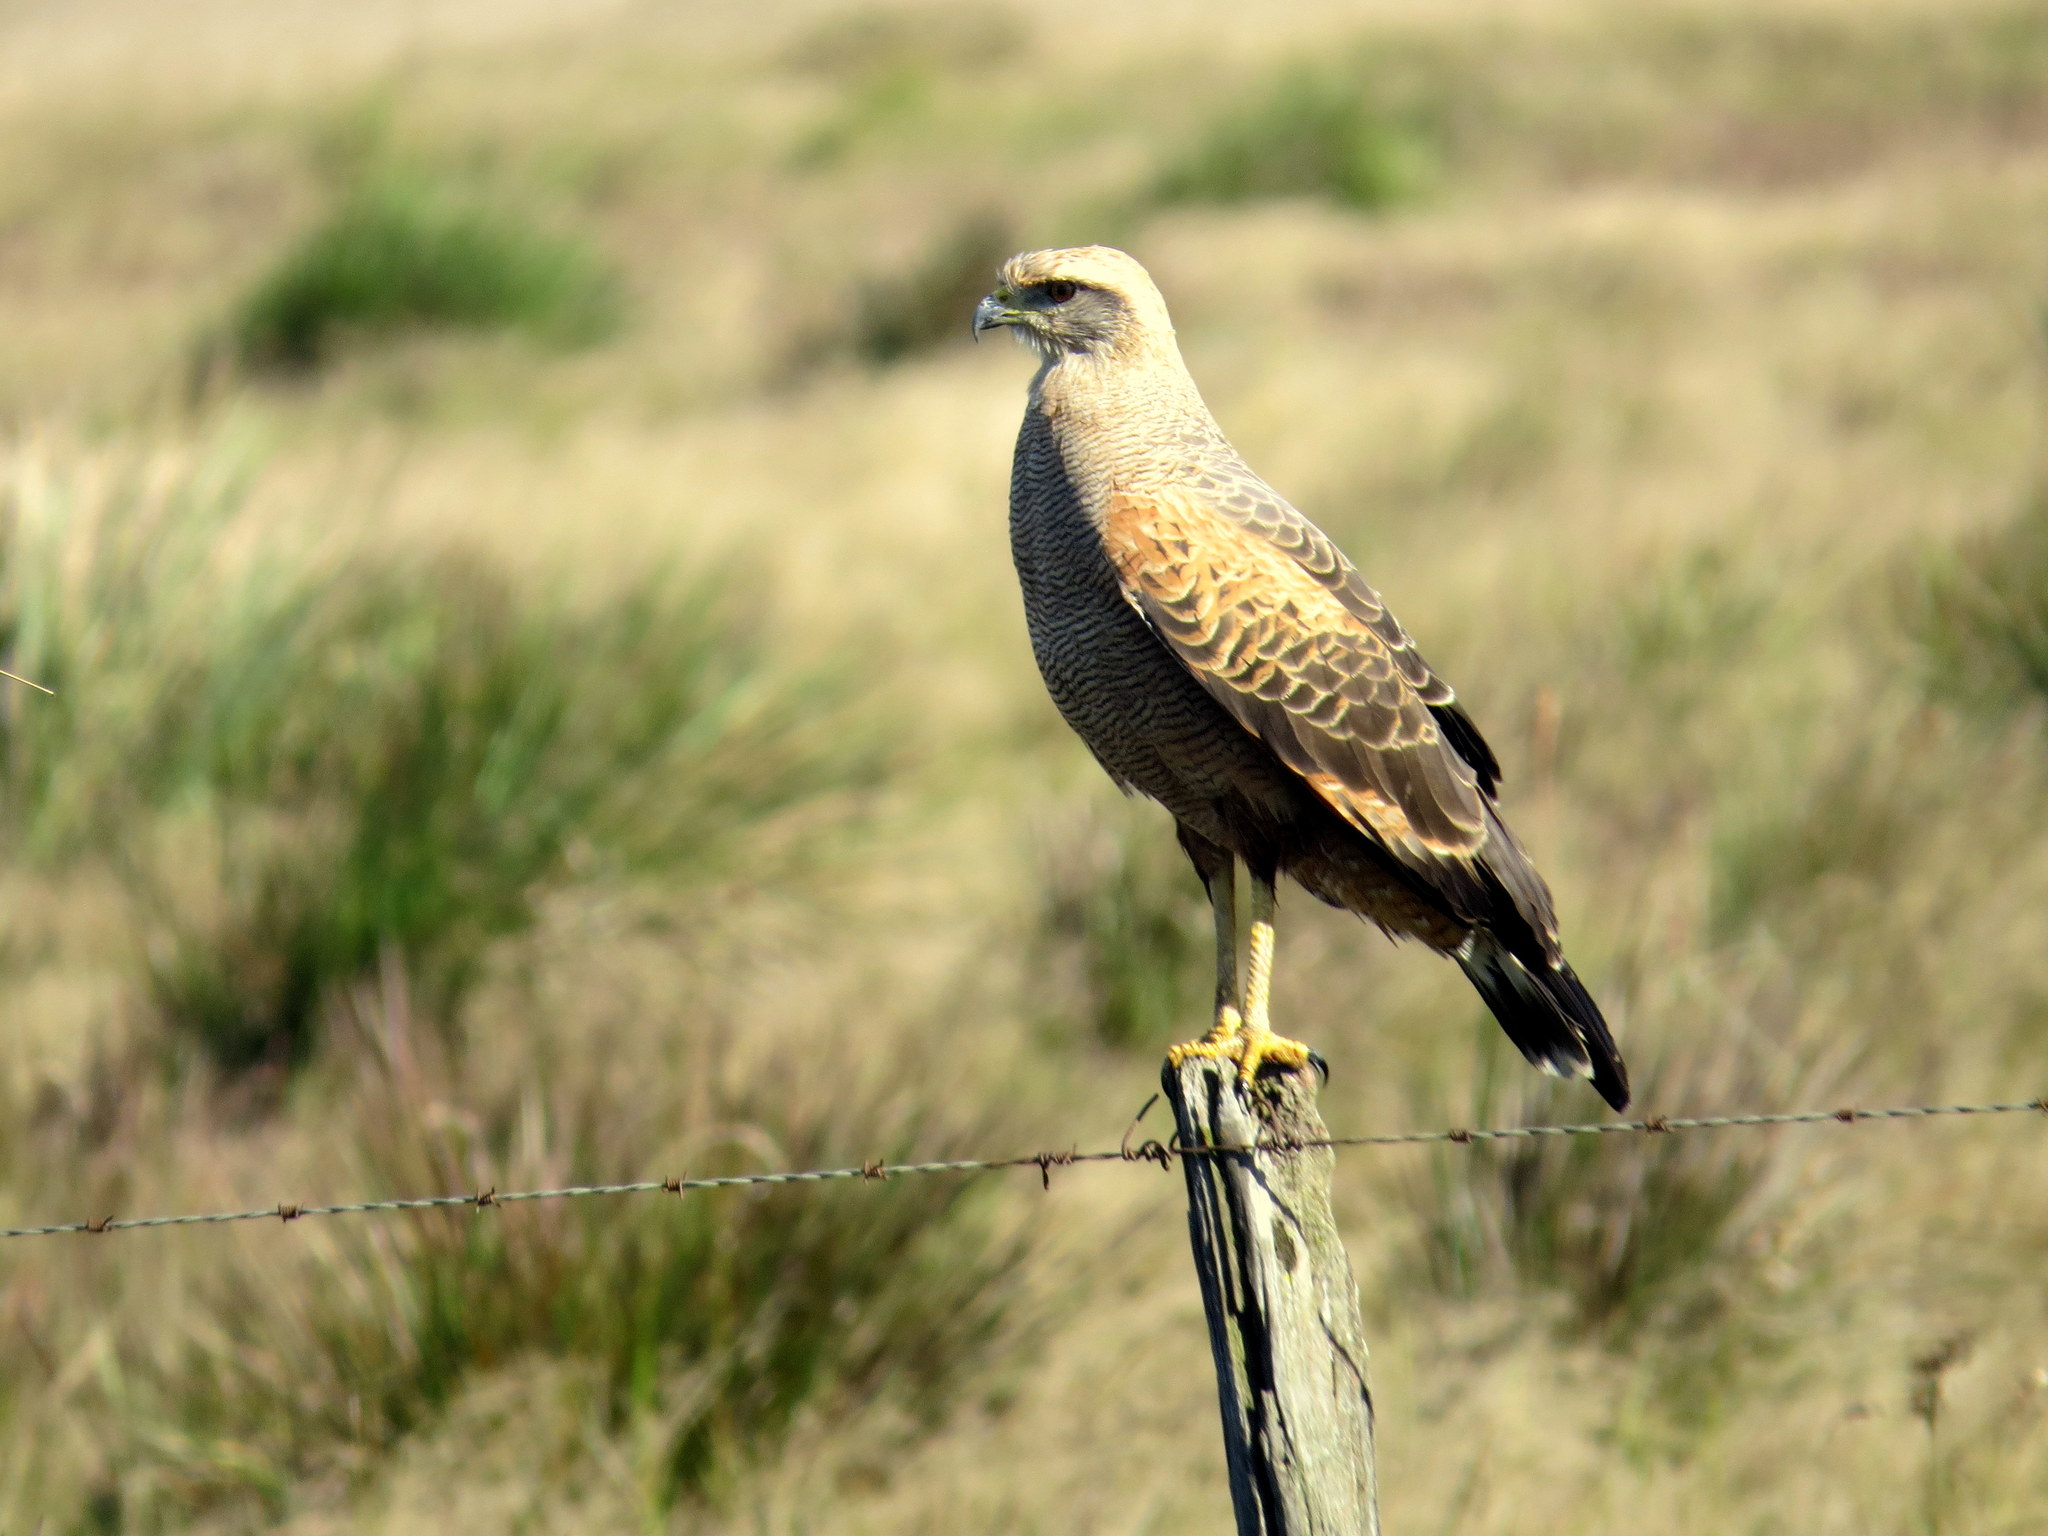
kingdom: Animalia
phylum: Chordata
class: Aves
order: Accipitriformes
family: Accipitridae
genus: Buteogallus
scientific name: Buteogallus meridionalis
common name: Savanna hawk
